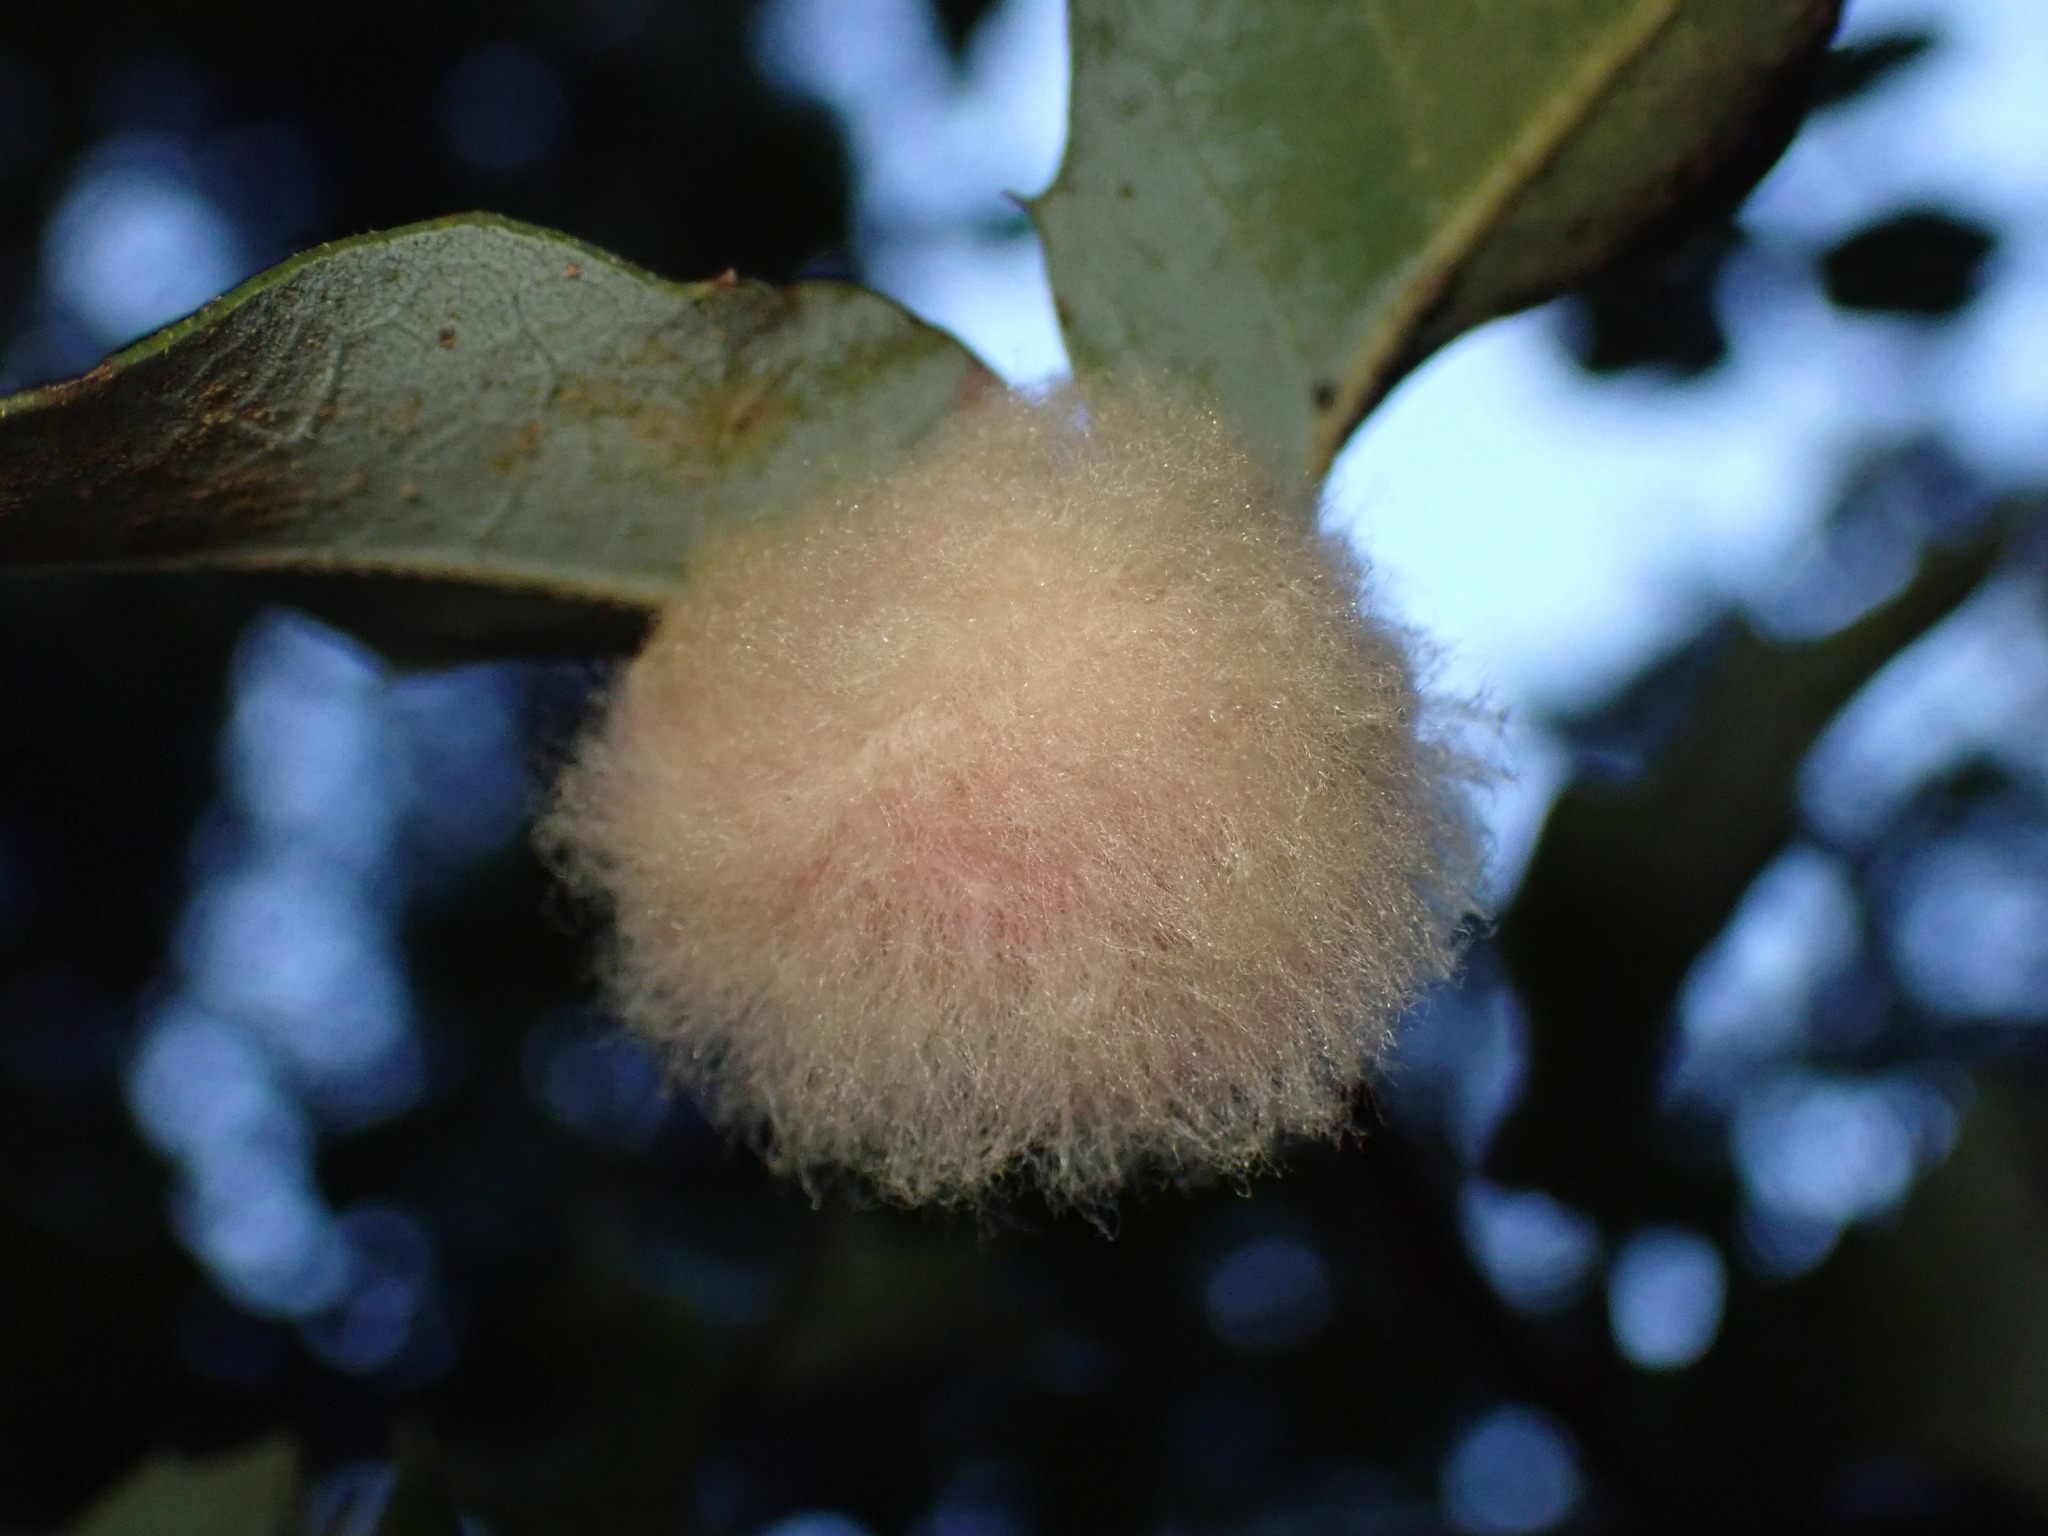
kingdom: Animalia
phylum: Arthropoda
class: Insecta
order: Hymenoptera
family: Cynipidae
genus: Heteroecus
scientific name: Heteroecus
